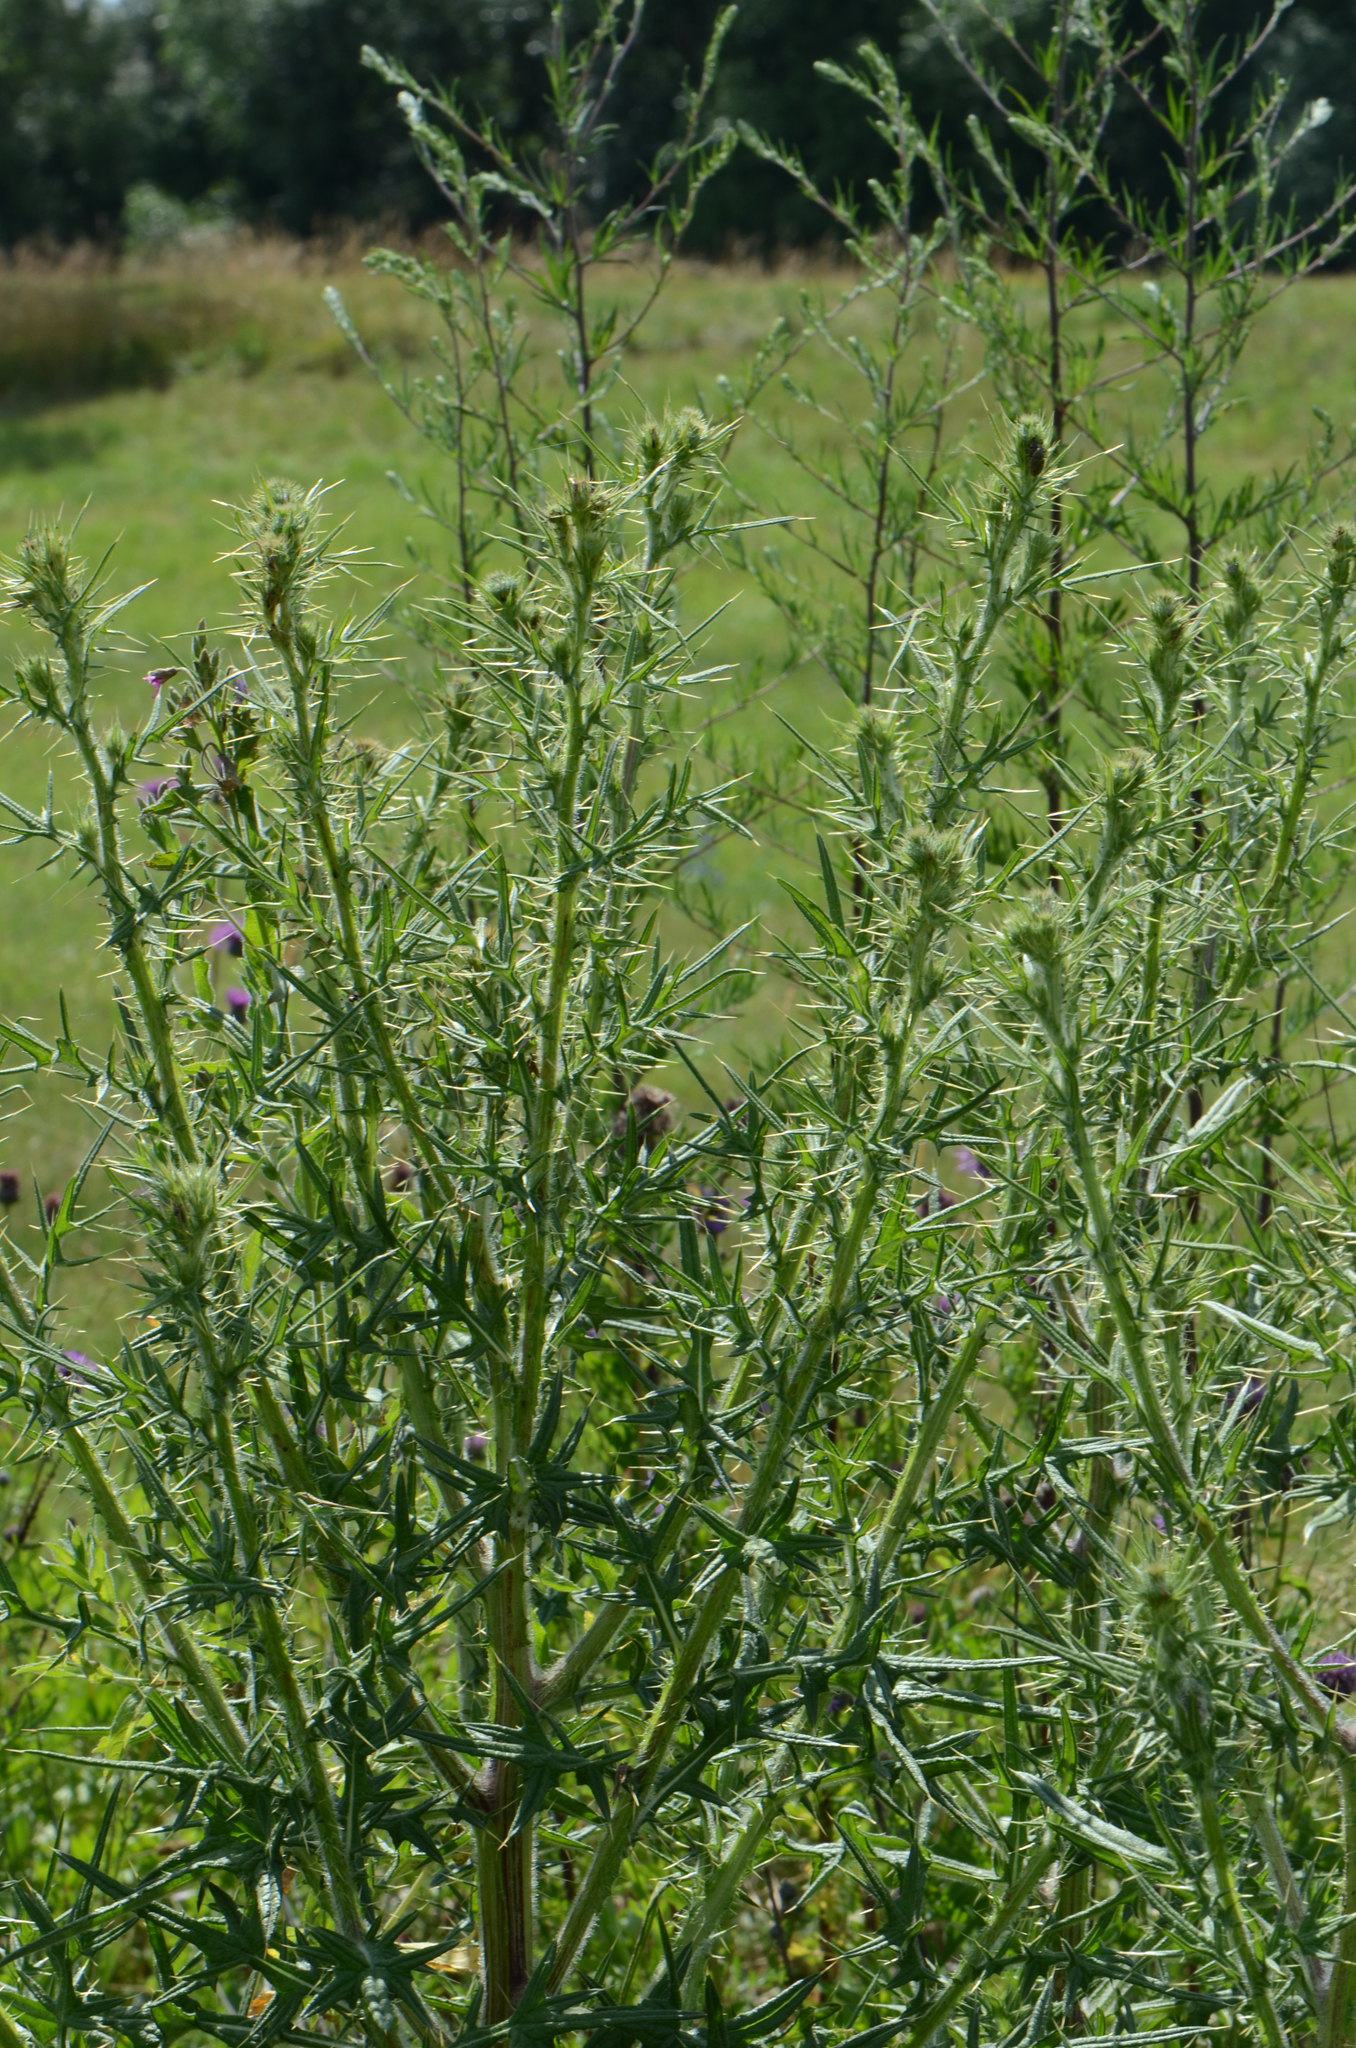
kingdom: Plantae
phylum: Tracheophyta
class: Magnoliopsida
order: Asterales
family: Asteraceae
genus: Cirsium
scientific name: Cirsium vulgare
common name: Bull thistle
